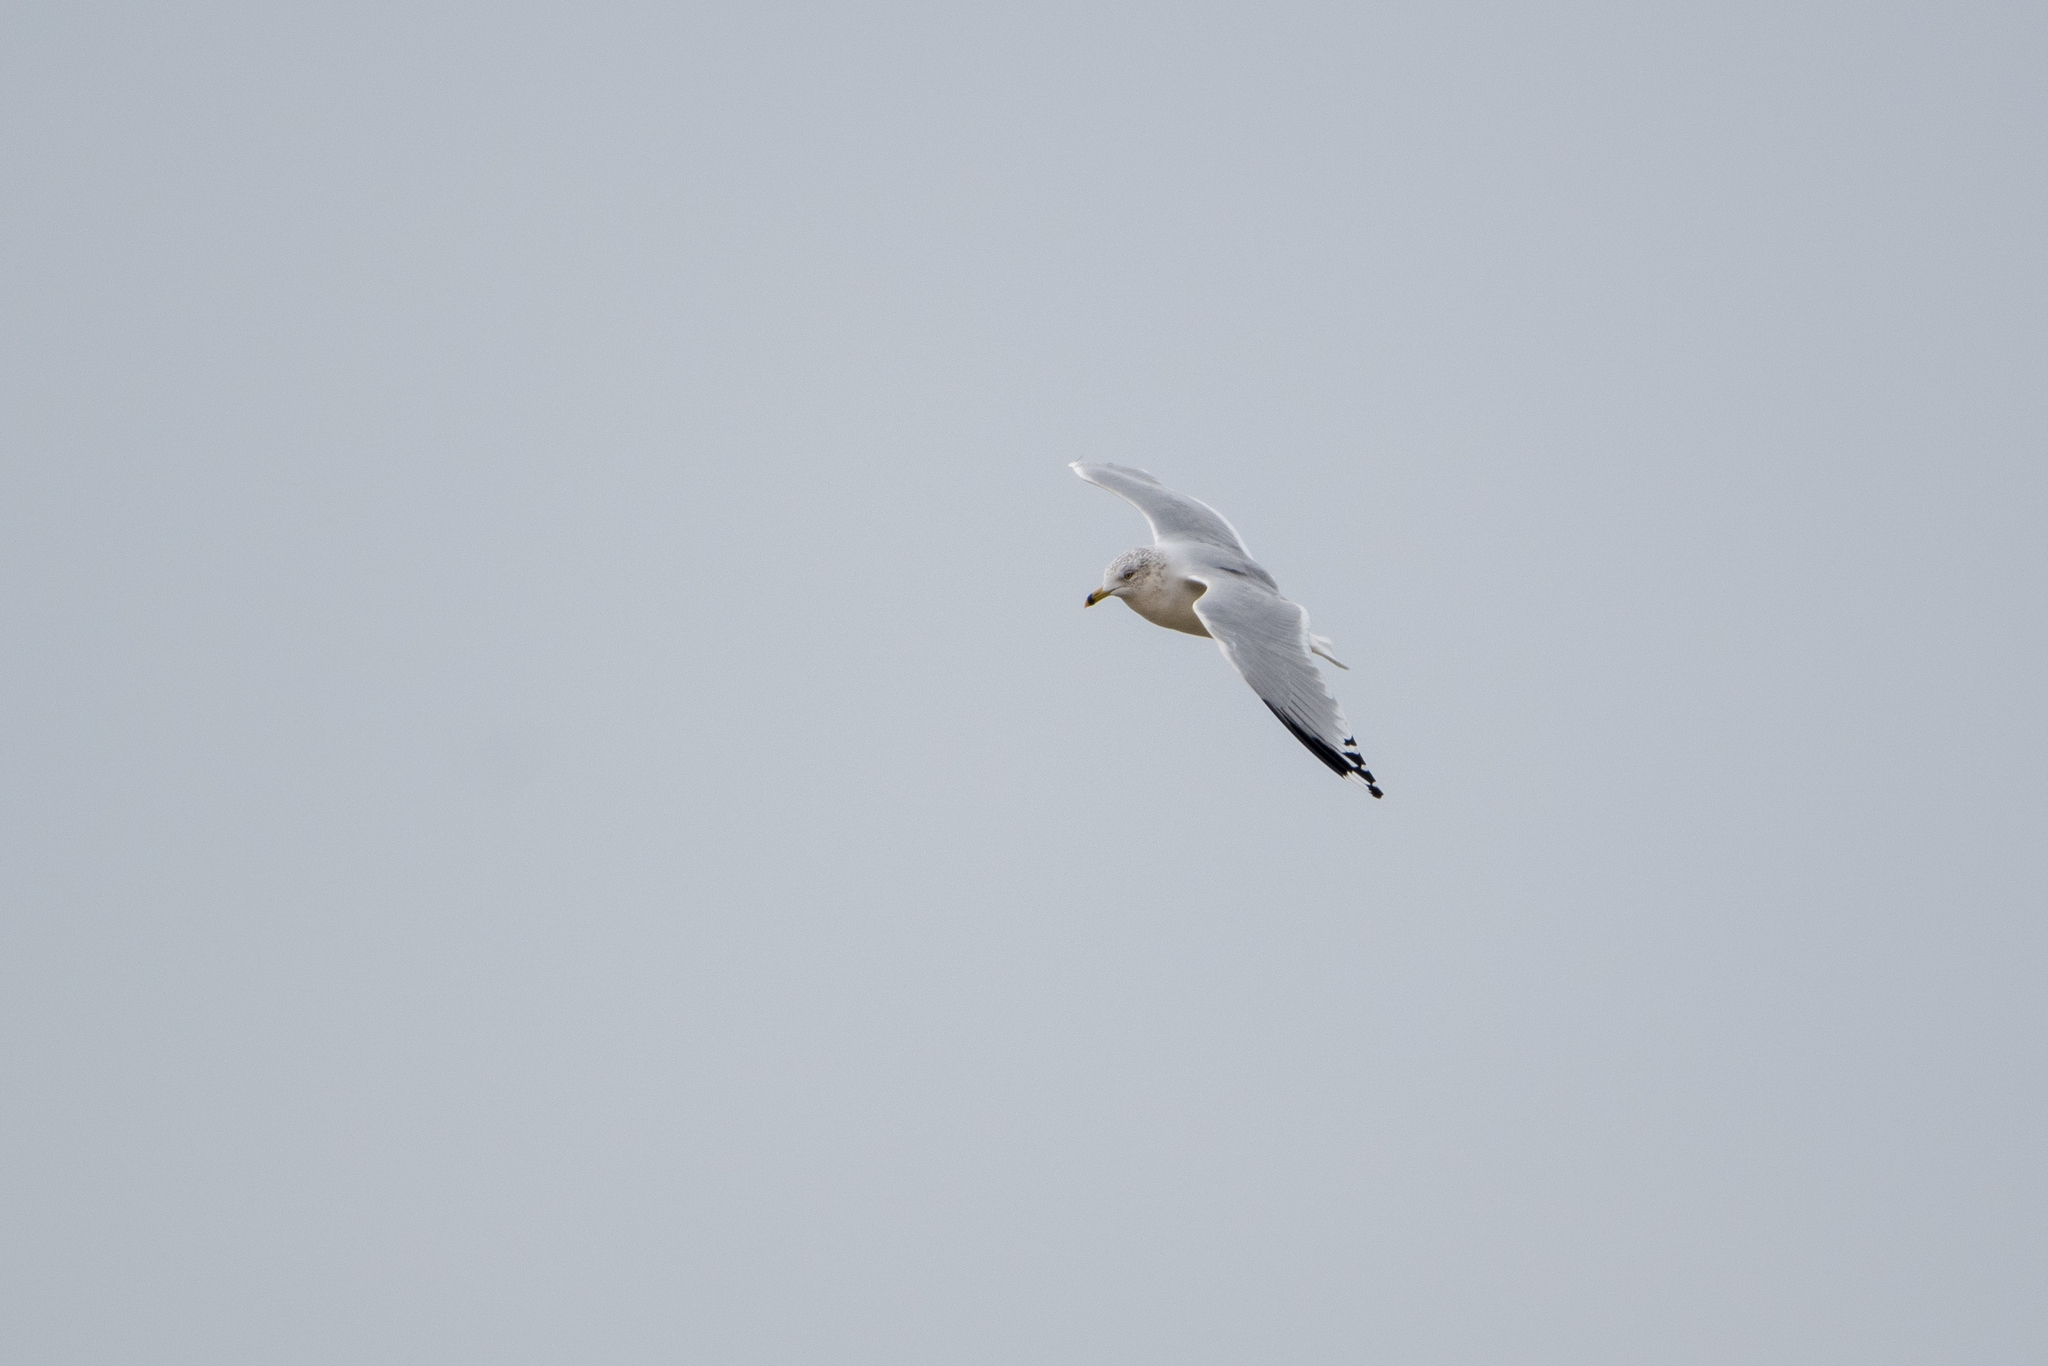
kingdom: Animalia
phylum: Chordata
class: Aves
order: Charadriiformes
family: Laridae
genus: Larus
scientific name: Larus delawarensis
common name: Ring-billed gull
